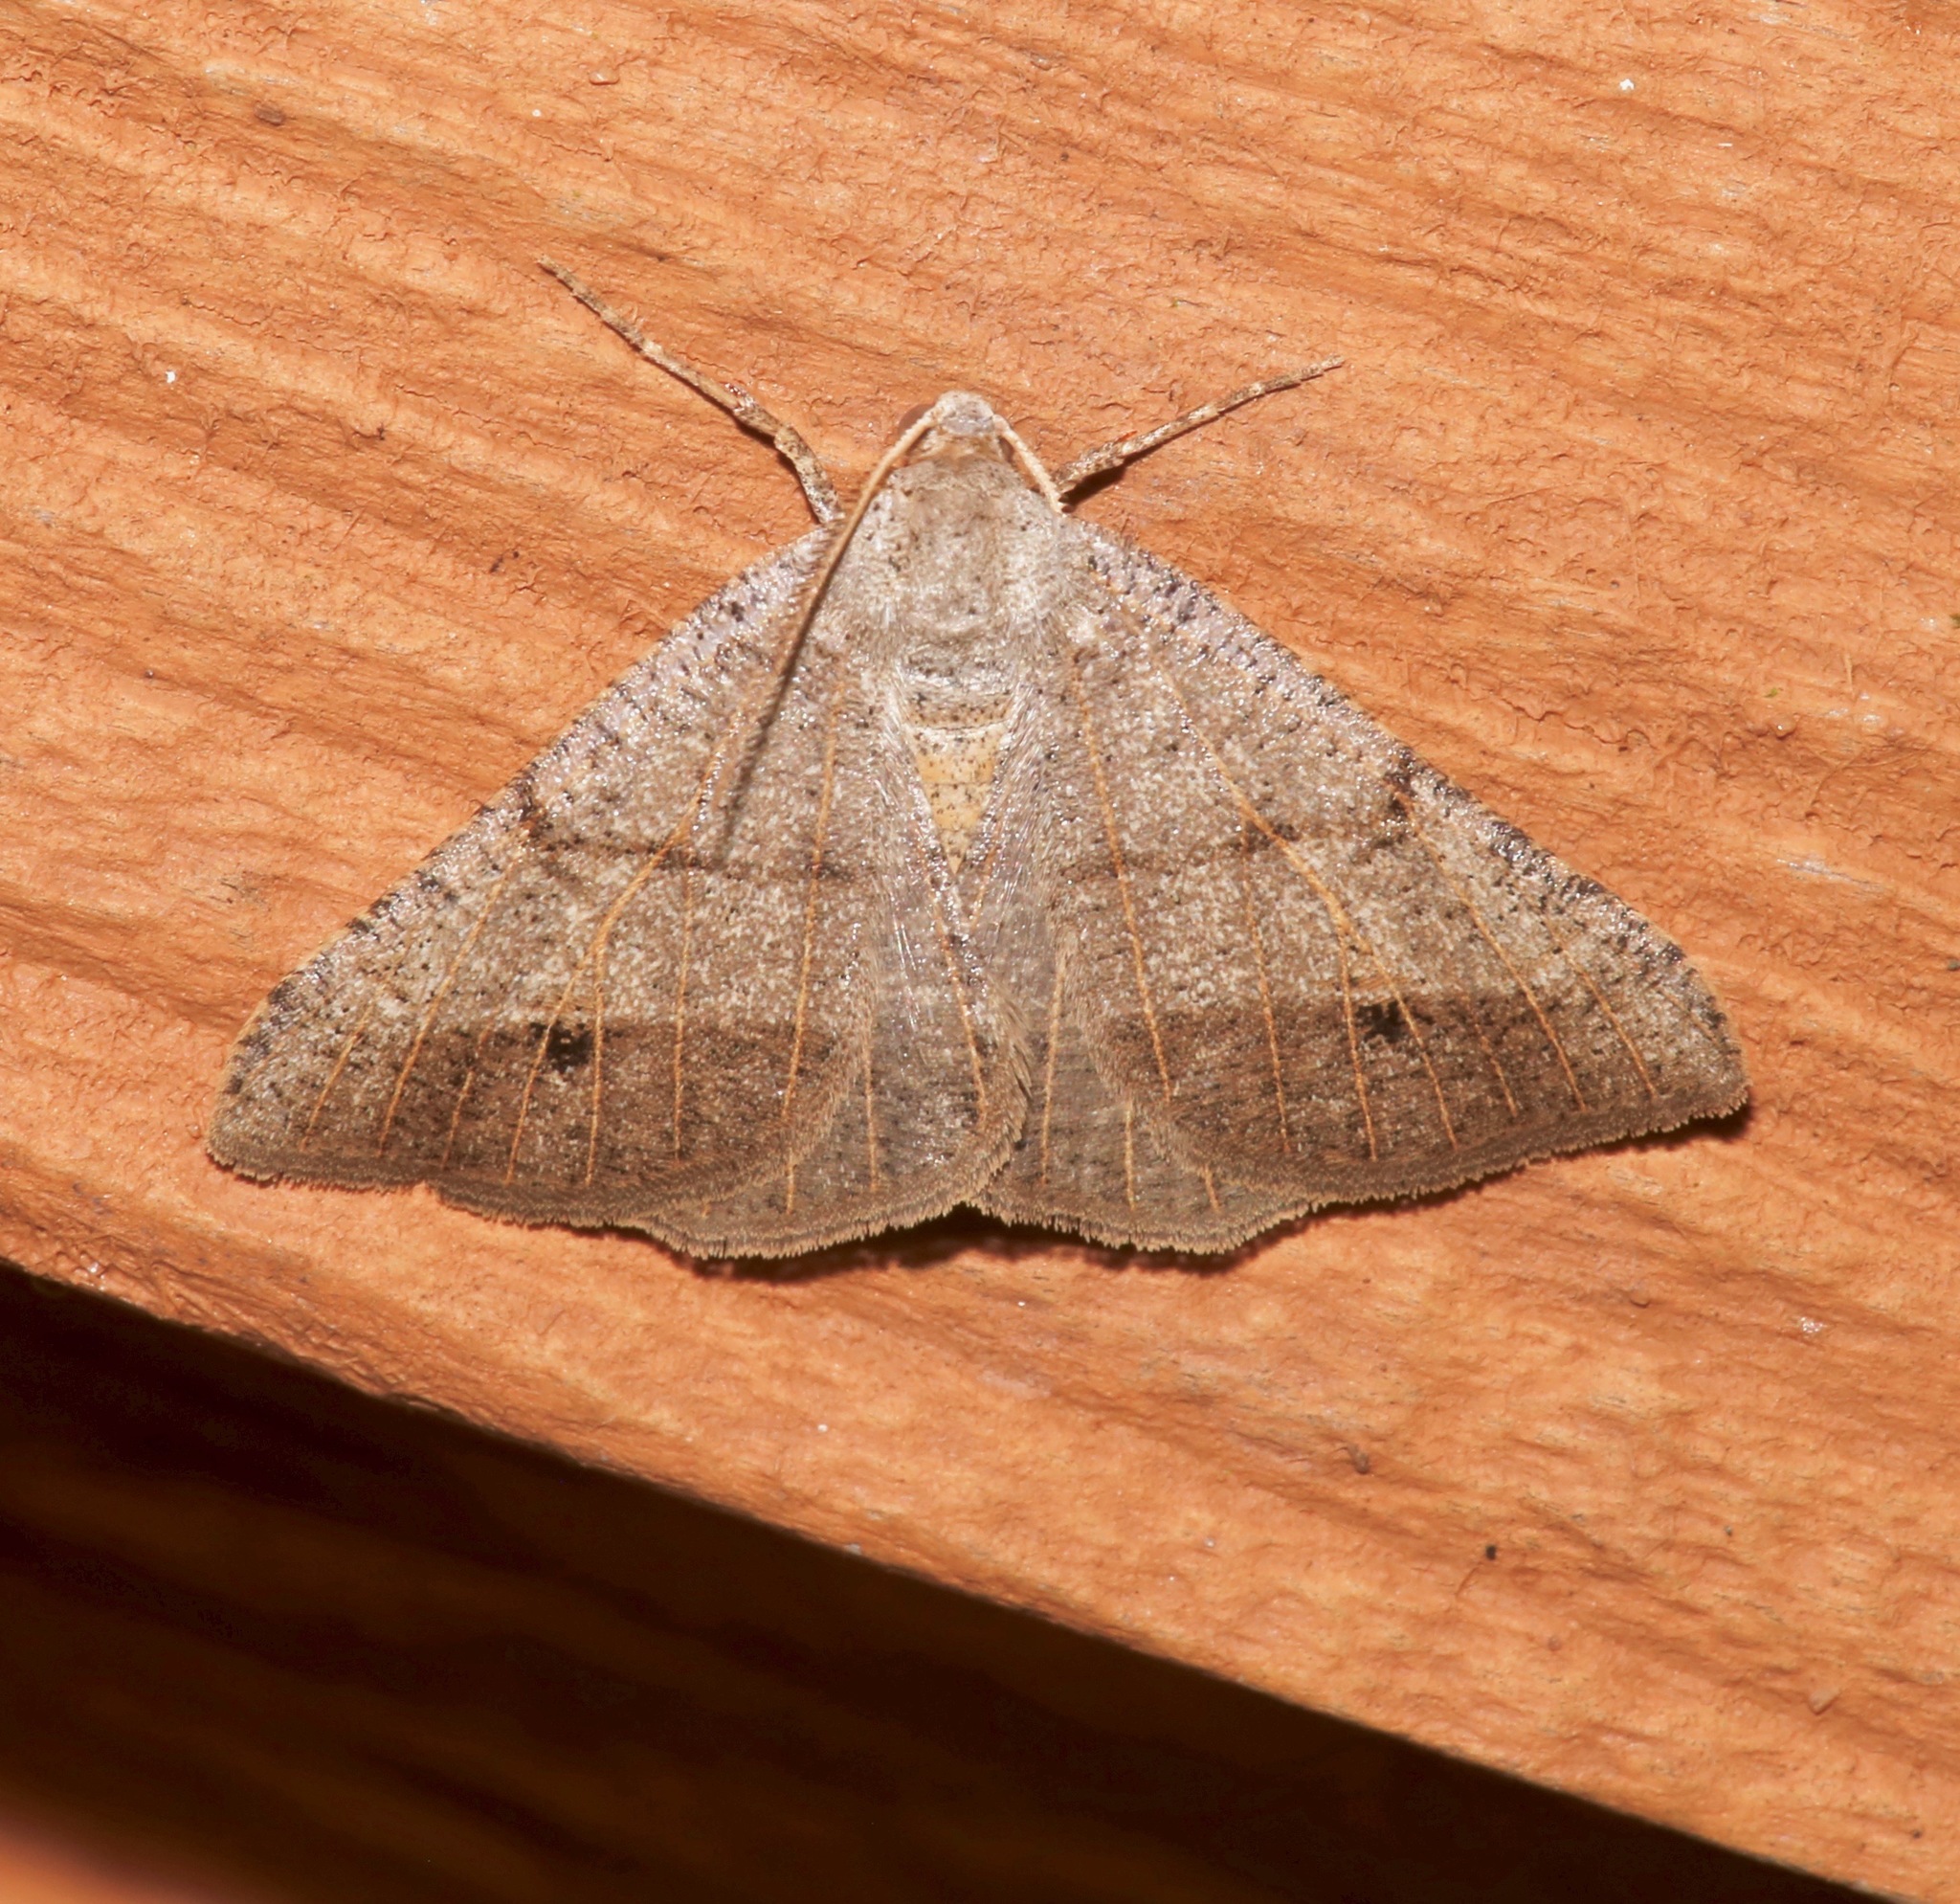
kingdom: Animalia
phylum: Arthropoda
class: Insecta
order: Lepidoptera
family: Geometridae
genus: Isturgia
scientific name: Isturgia dislocaria
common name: Pale-viened enconista
